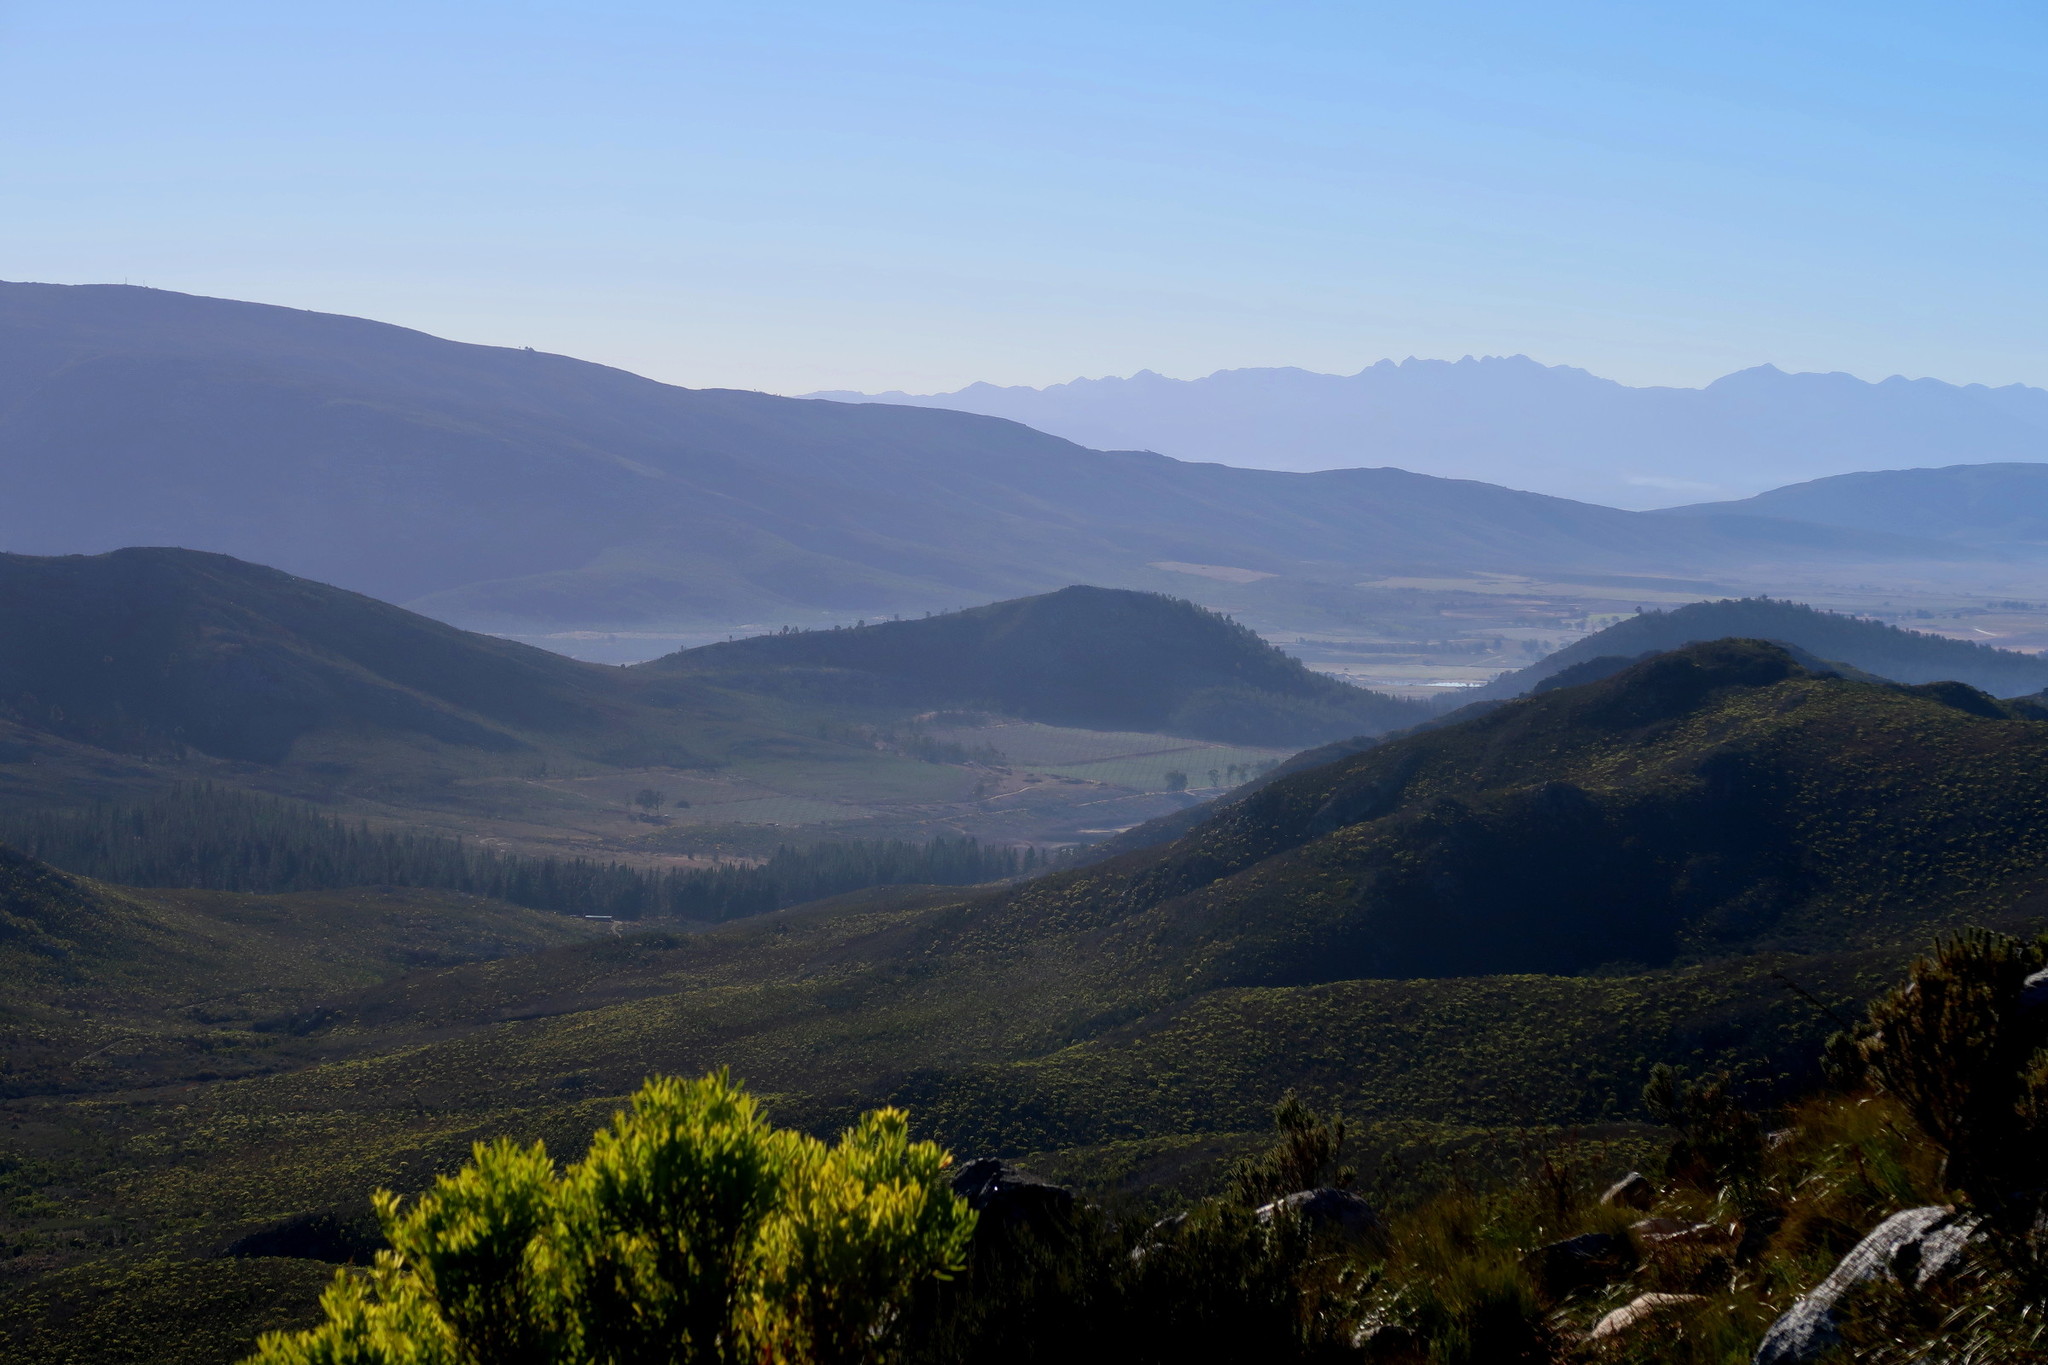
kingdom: Plantae
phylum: Tracheophyta
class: Magnoliopsida
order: Proteales
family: Proteaceae
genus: Leucadendron
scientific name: Leucadendron salignum
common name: Common sunshine conebush
